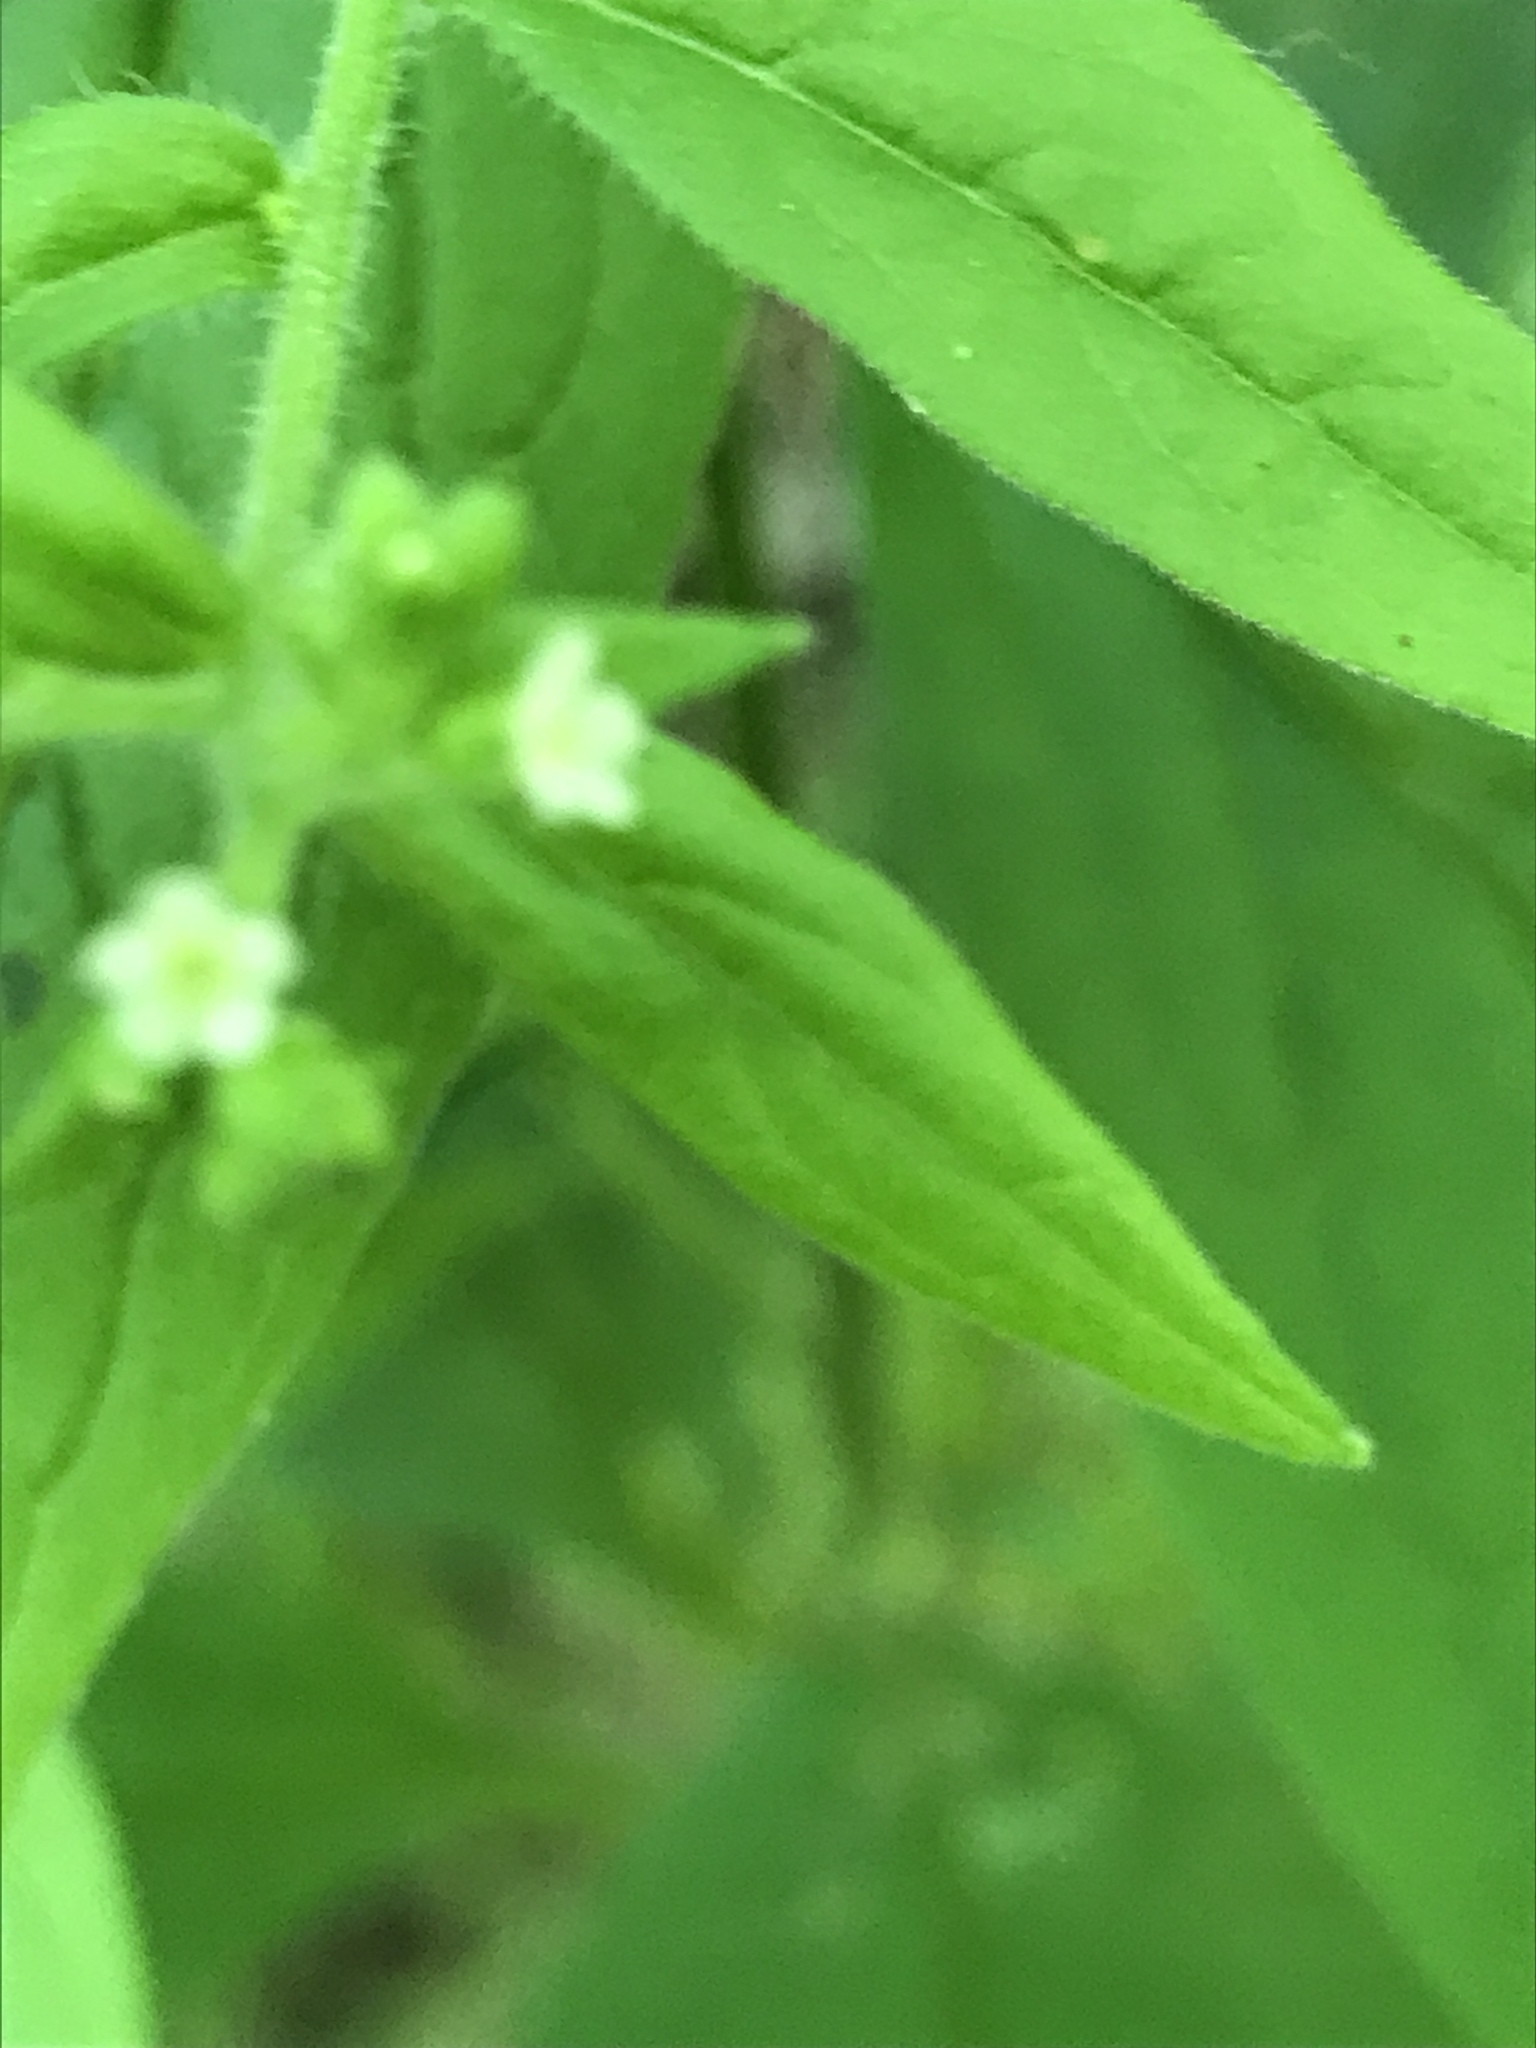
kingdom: Plantae
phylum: Tracheophyta
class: Magnoliopsida
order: Boraginales
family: Boraginaceae
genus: Hackelia
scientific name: Hackelia virginiana
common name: Beggar's-lice
